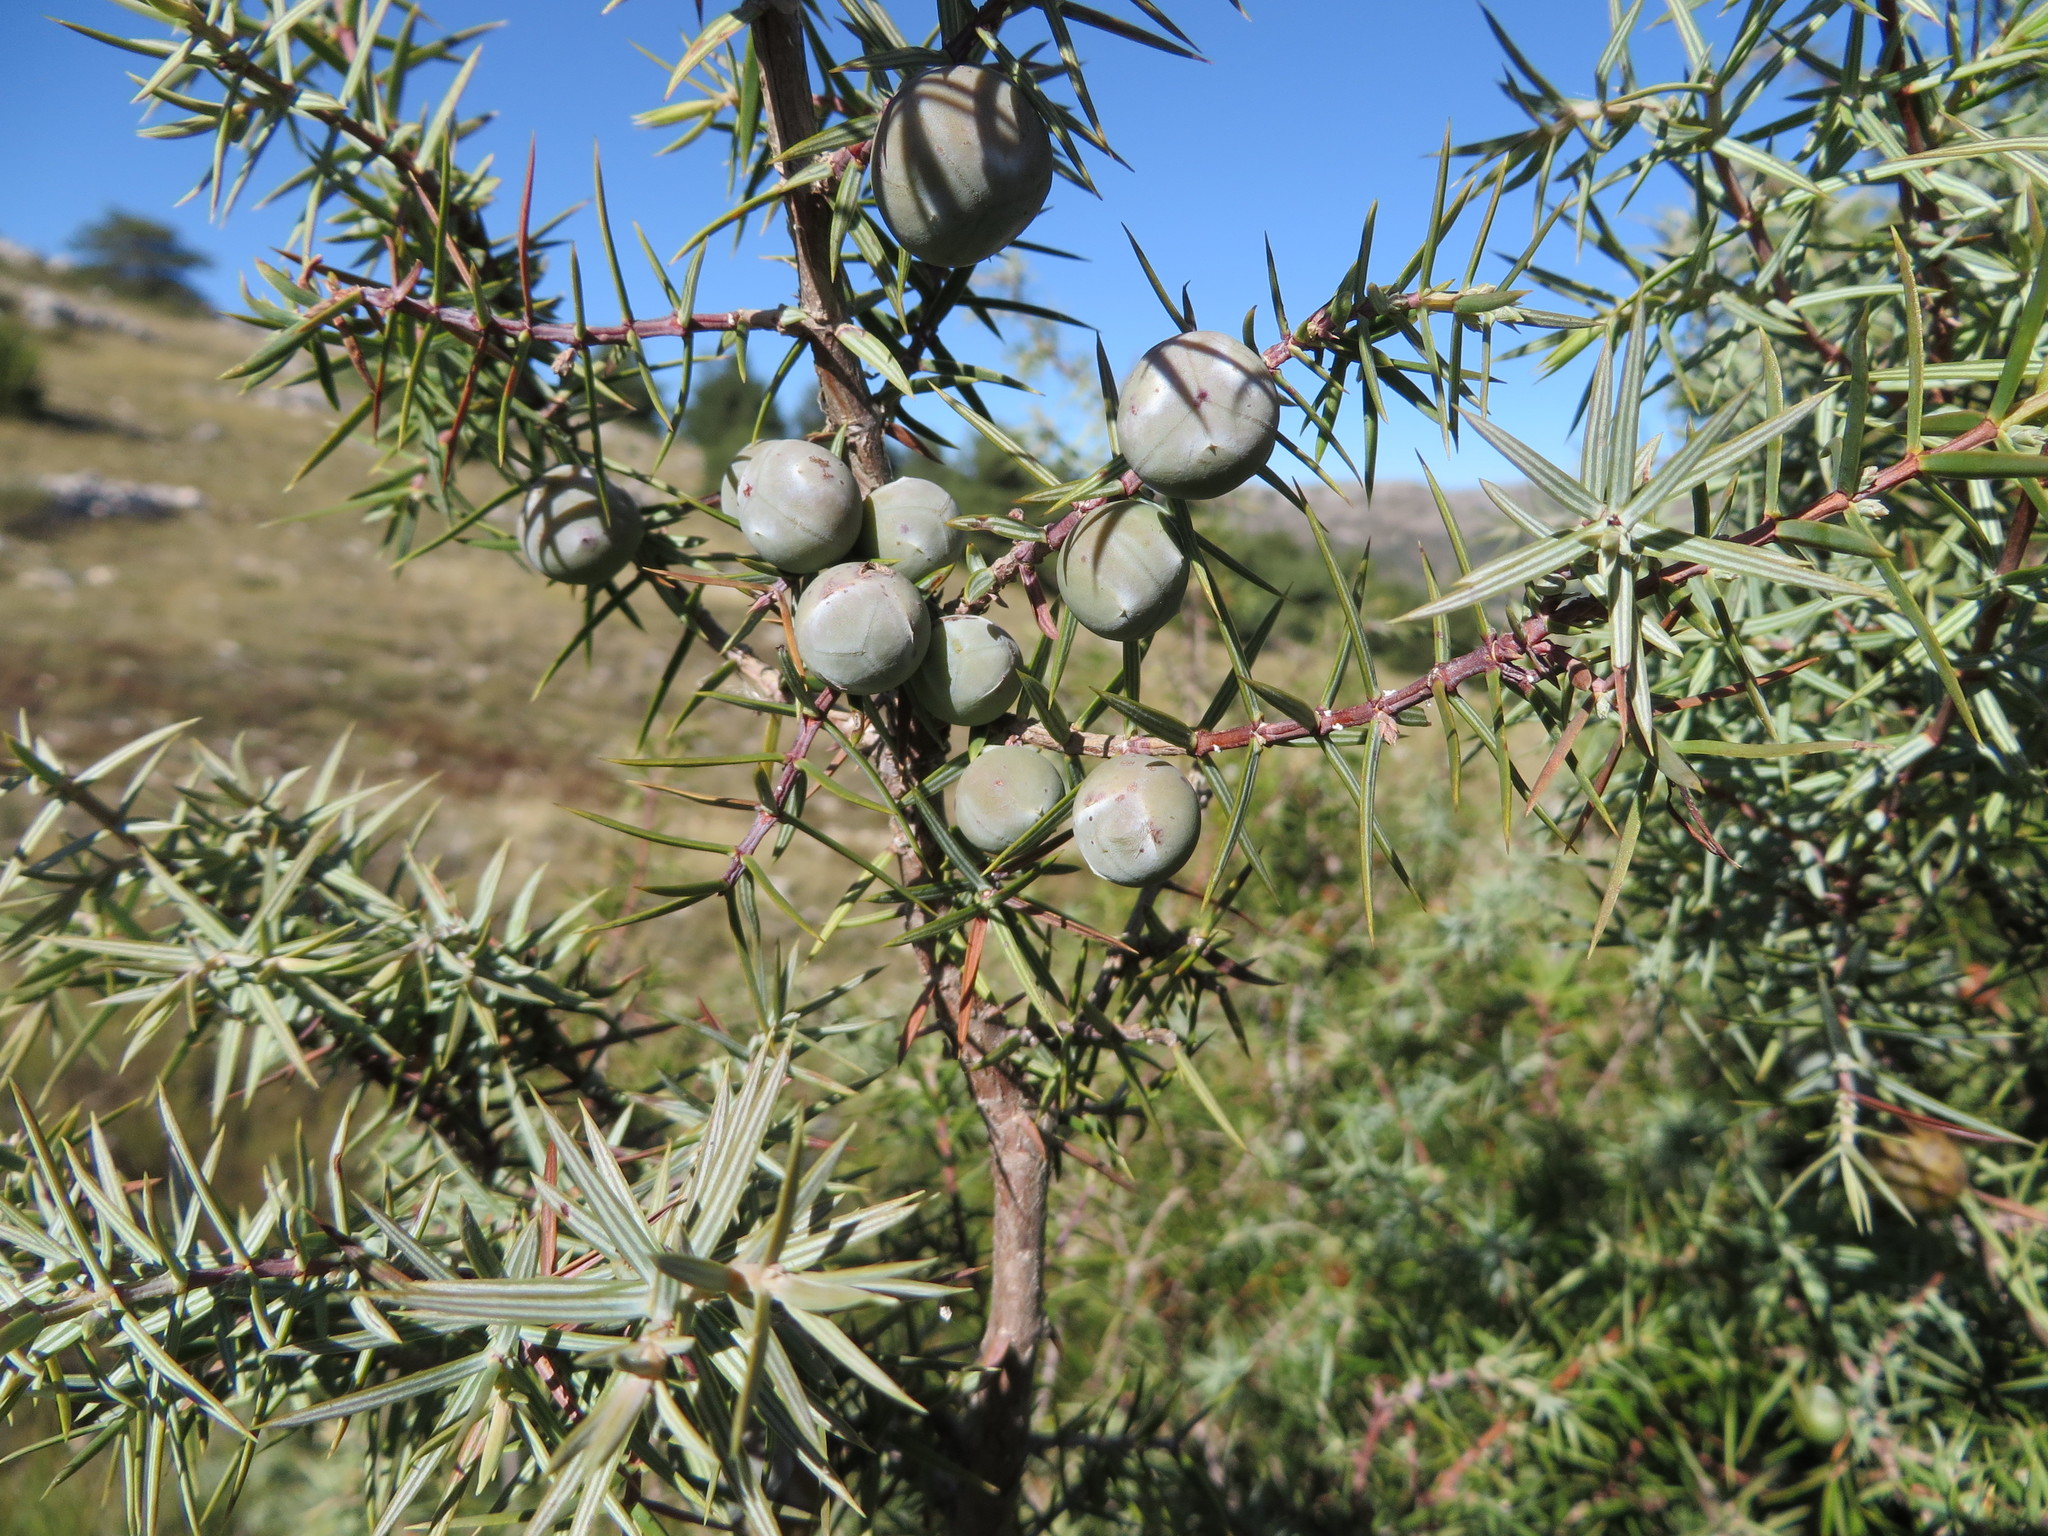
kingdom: Plantae
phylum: Tracheophyta
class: Pinopsida
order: Pinales
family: Cupressaceae
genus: Juniperus
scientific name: Juniperus oxycedrus
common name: Prickly juniper
